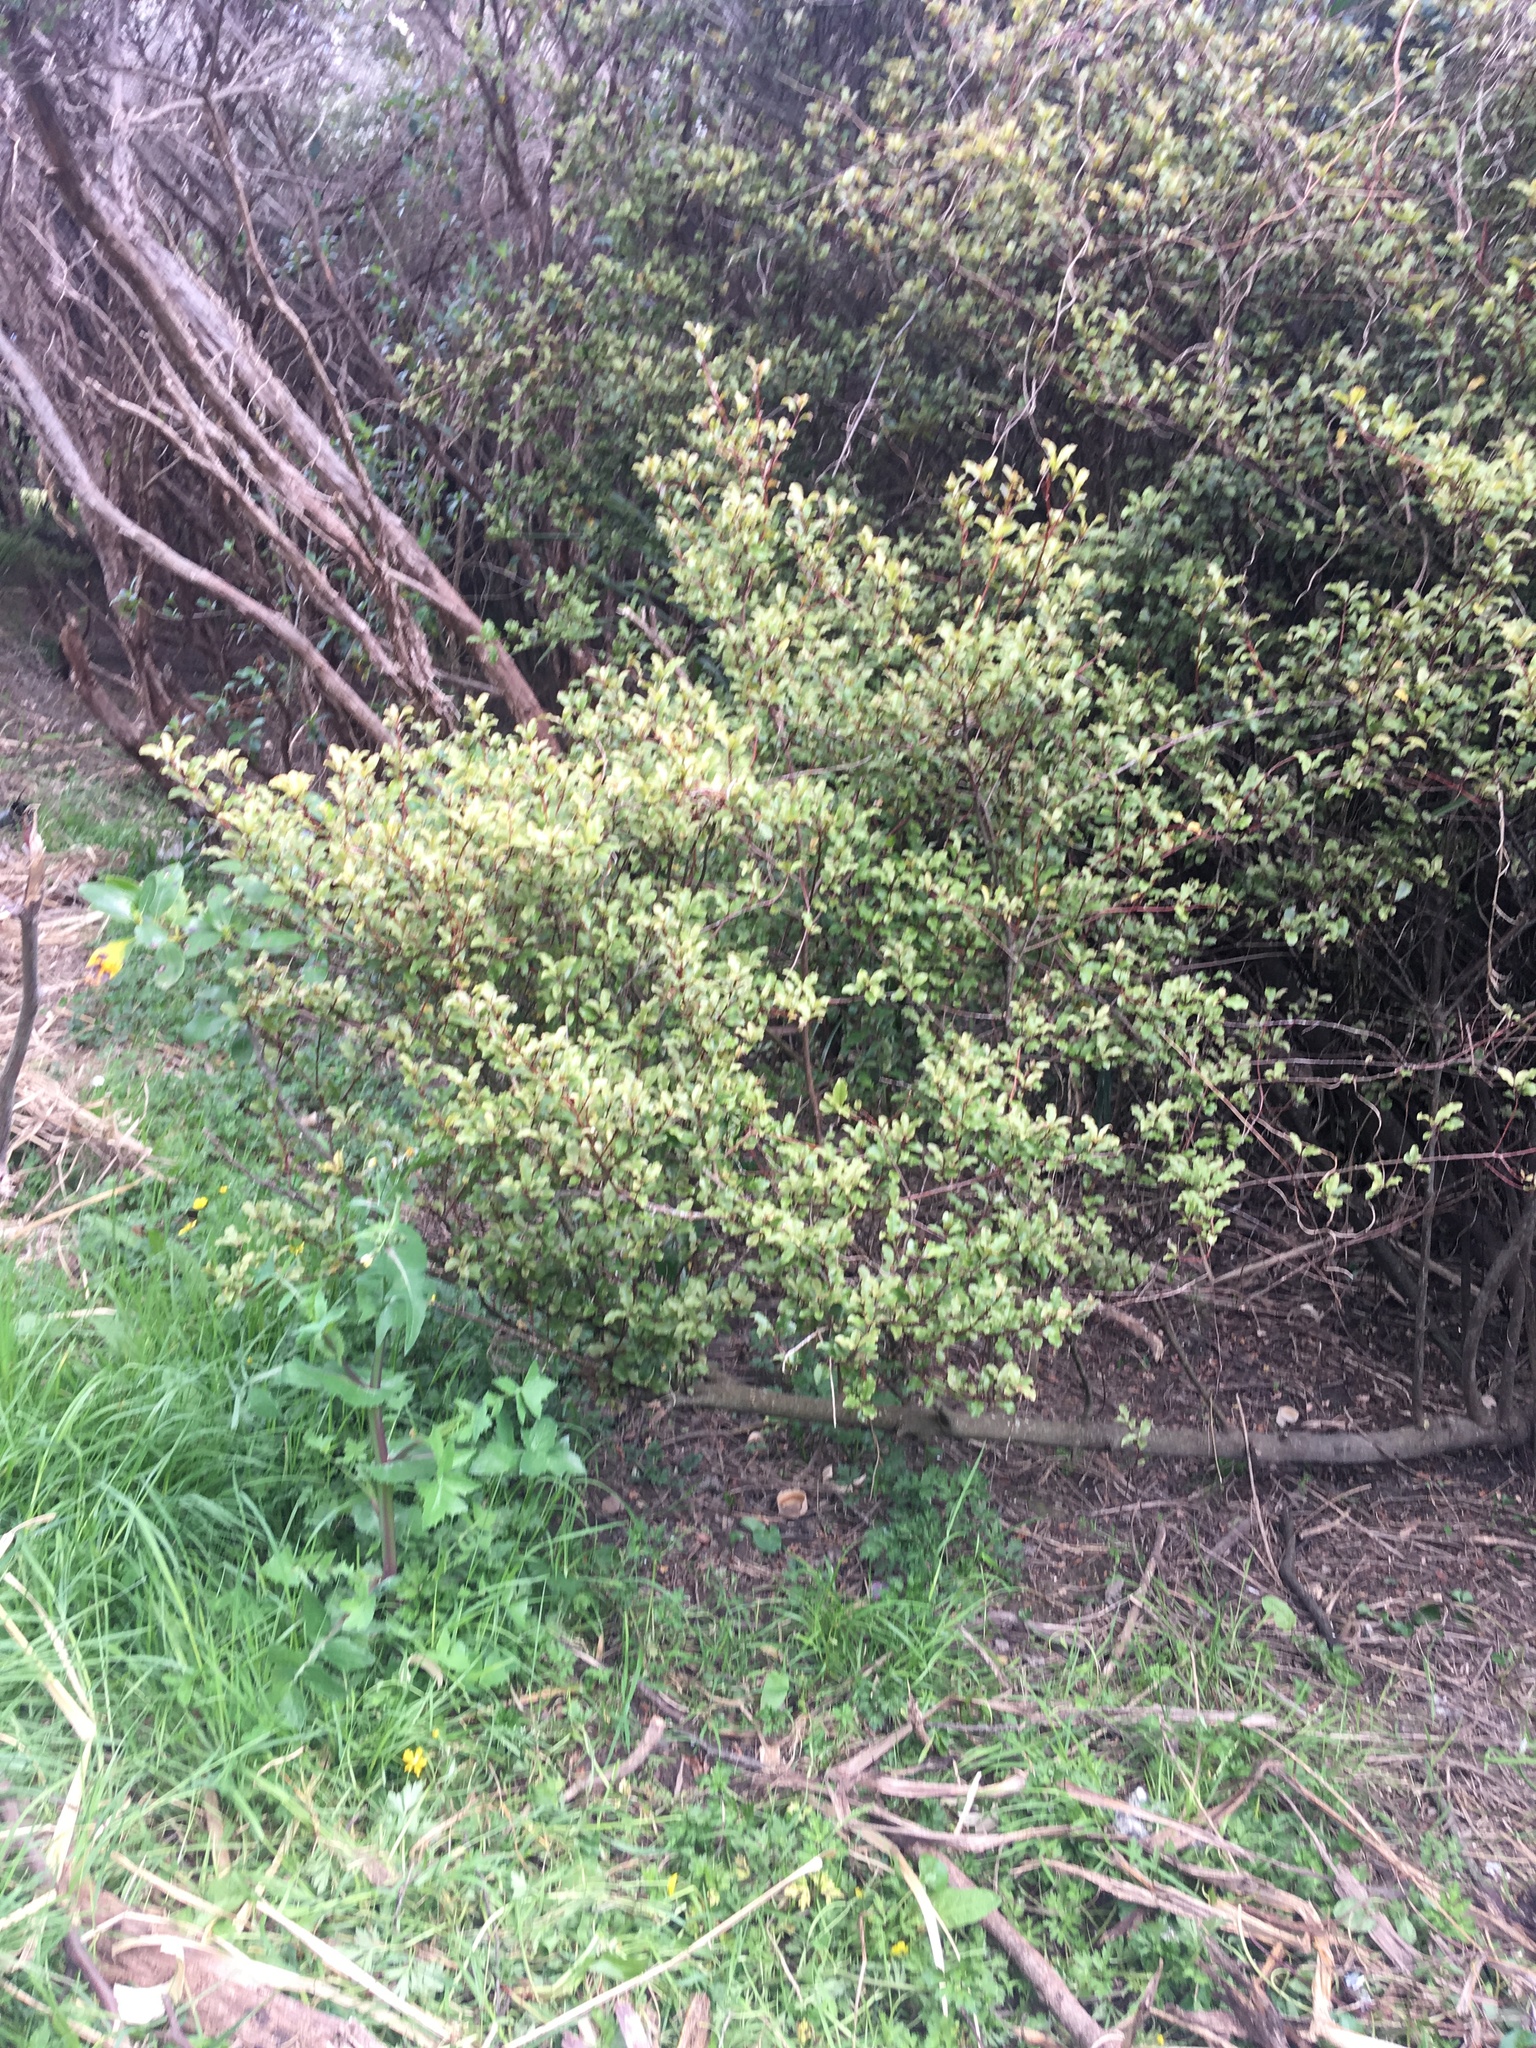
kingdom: Plantae
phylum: Tracheophyta
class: Magnoliopsida
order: Asterales
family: Asteraceae
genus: Sonchus
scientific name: Sonchus oleraceus
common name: Common sowthistle
